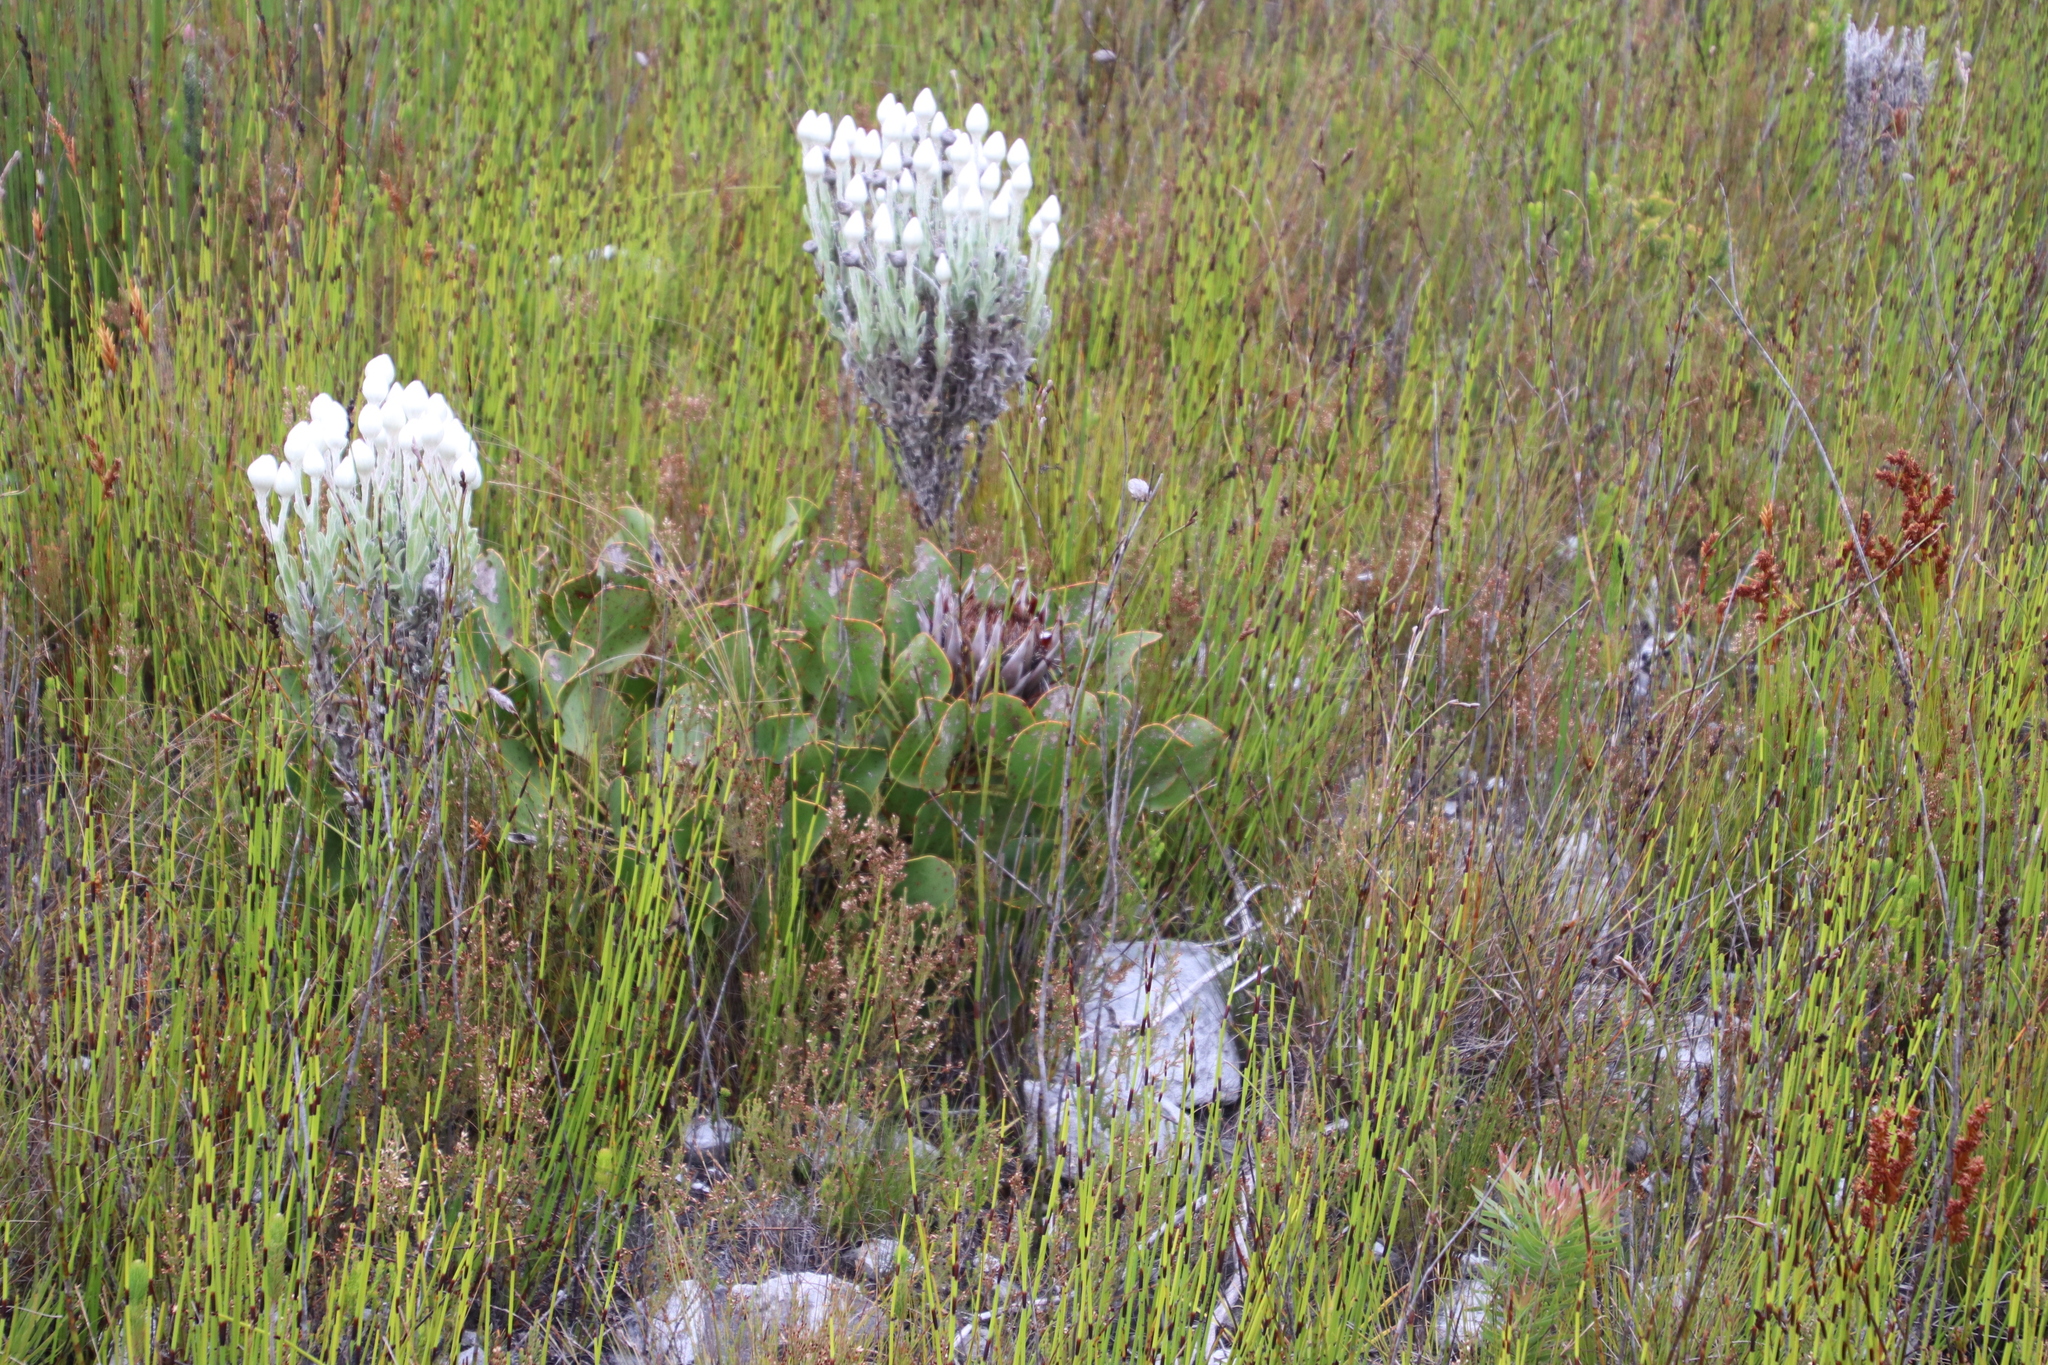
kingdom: Plantae
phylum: Tracheophyta
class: Magnoliopsida
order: Proteales
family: Proteaceae
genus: Protea
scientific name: Protea cynaroides
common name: King protea
